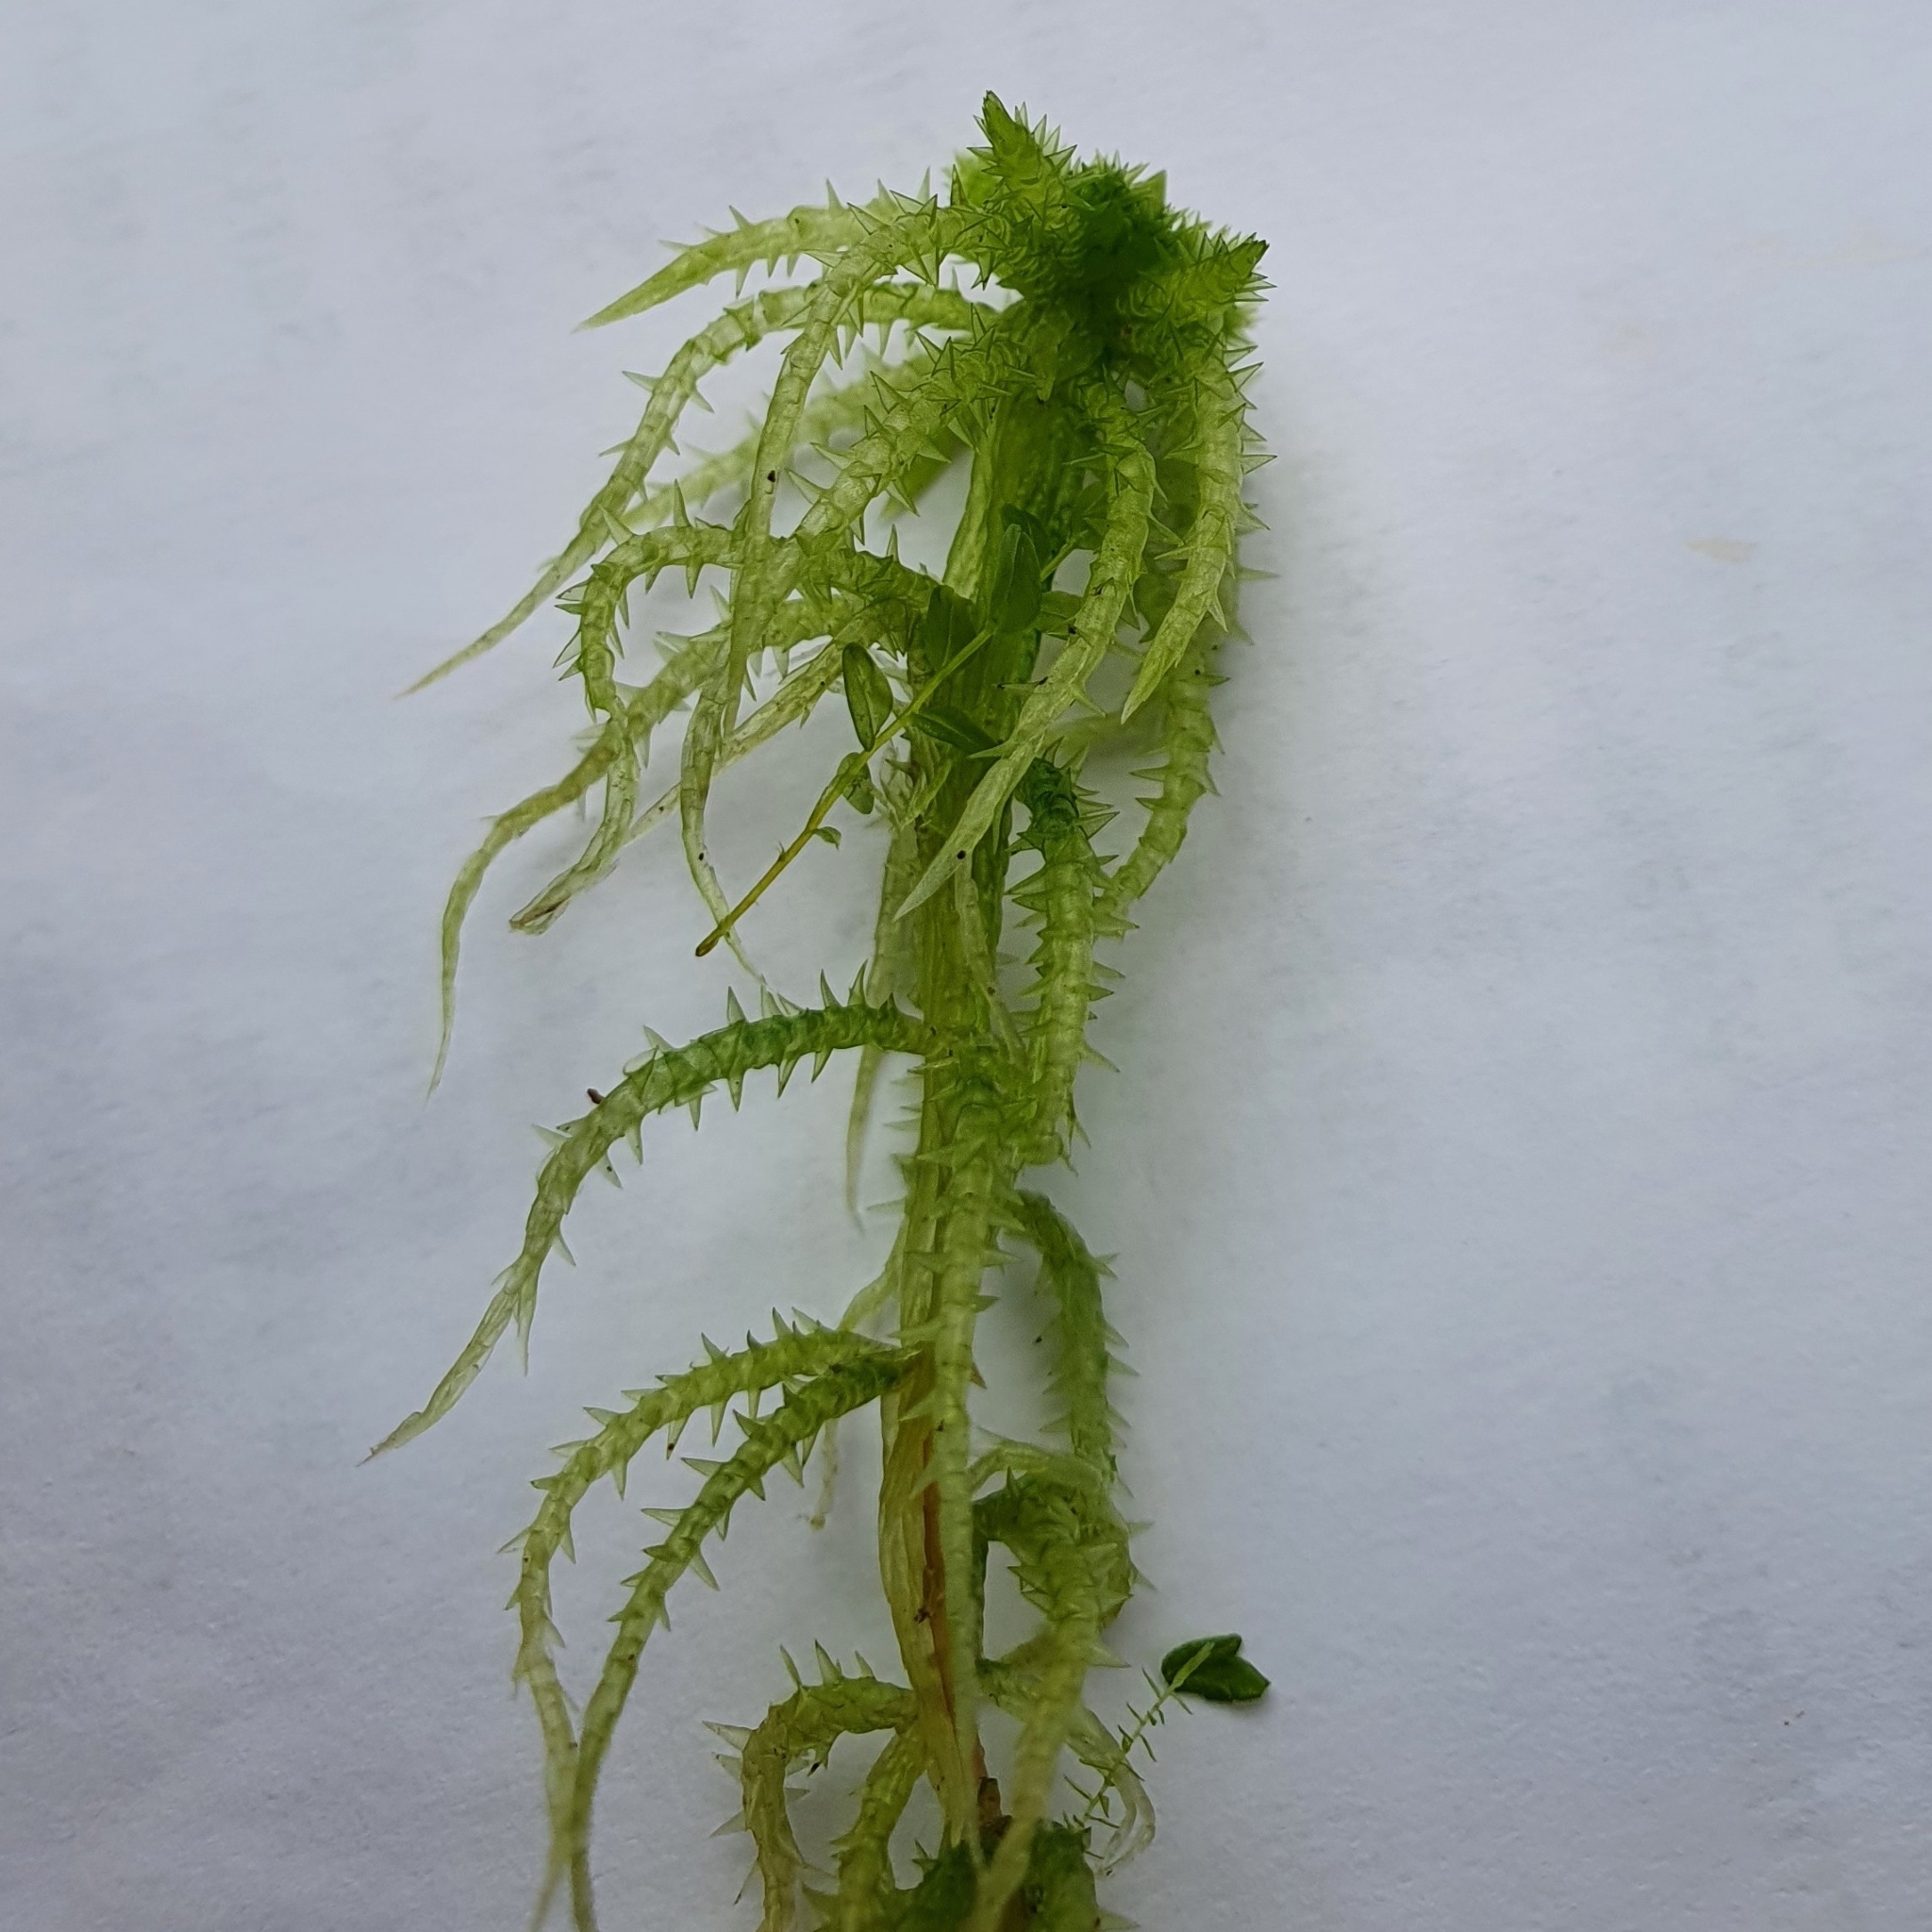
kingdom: Plantae
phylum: Bryophyta
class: Sphagnopsida
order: Sphagnales
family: Sphagnaceae
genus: Sphagnum
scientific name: Sphagnum squarrosum
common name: Shaggy peat moss
